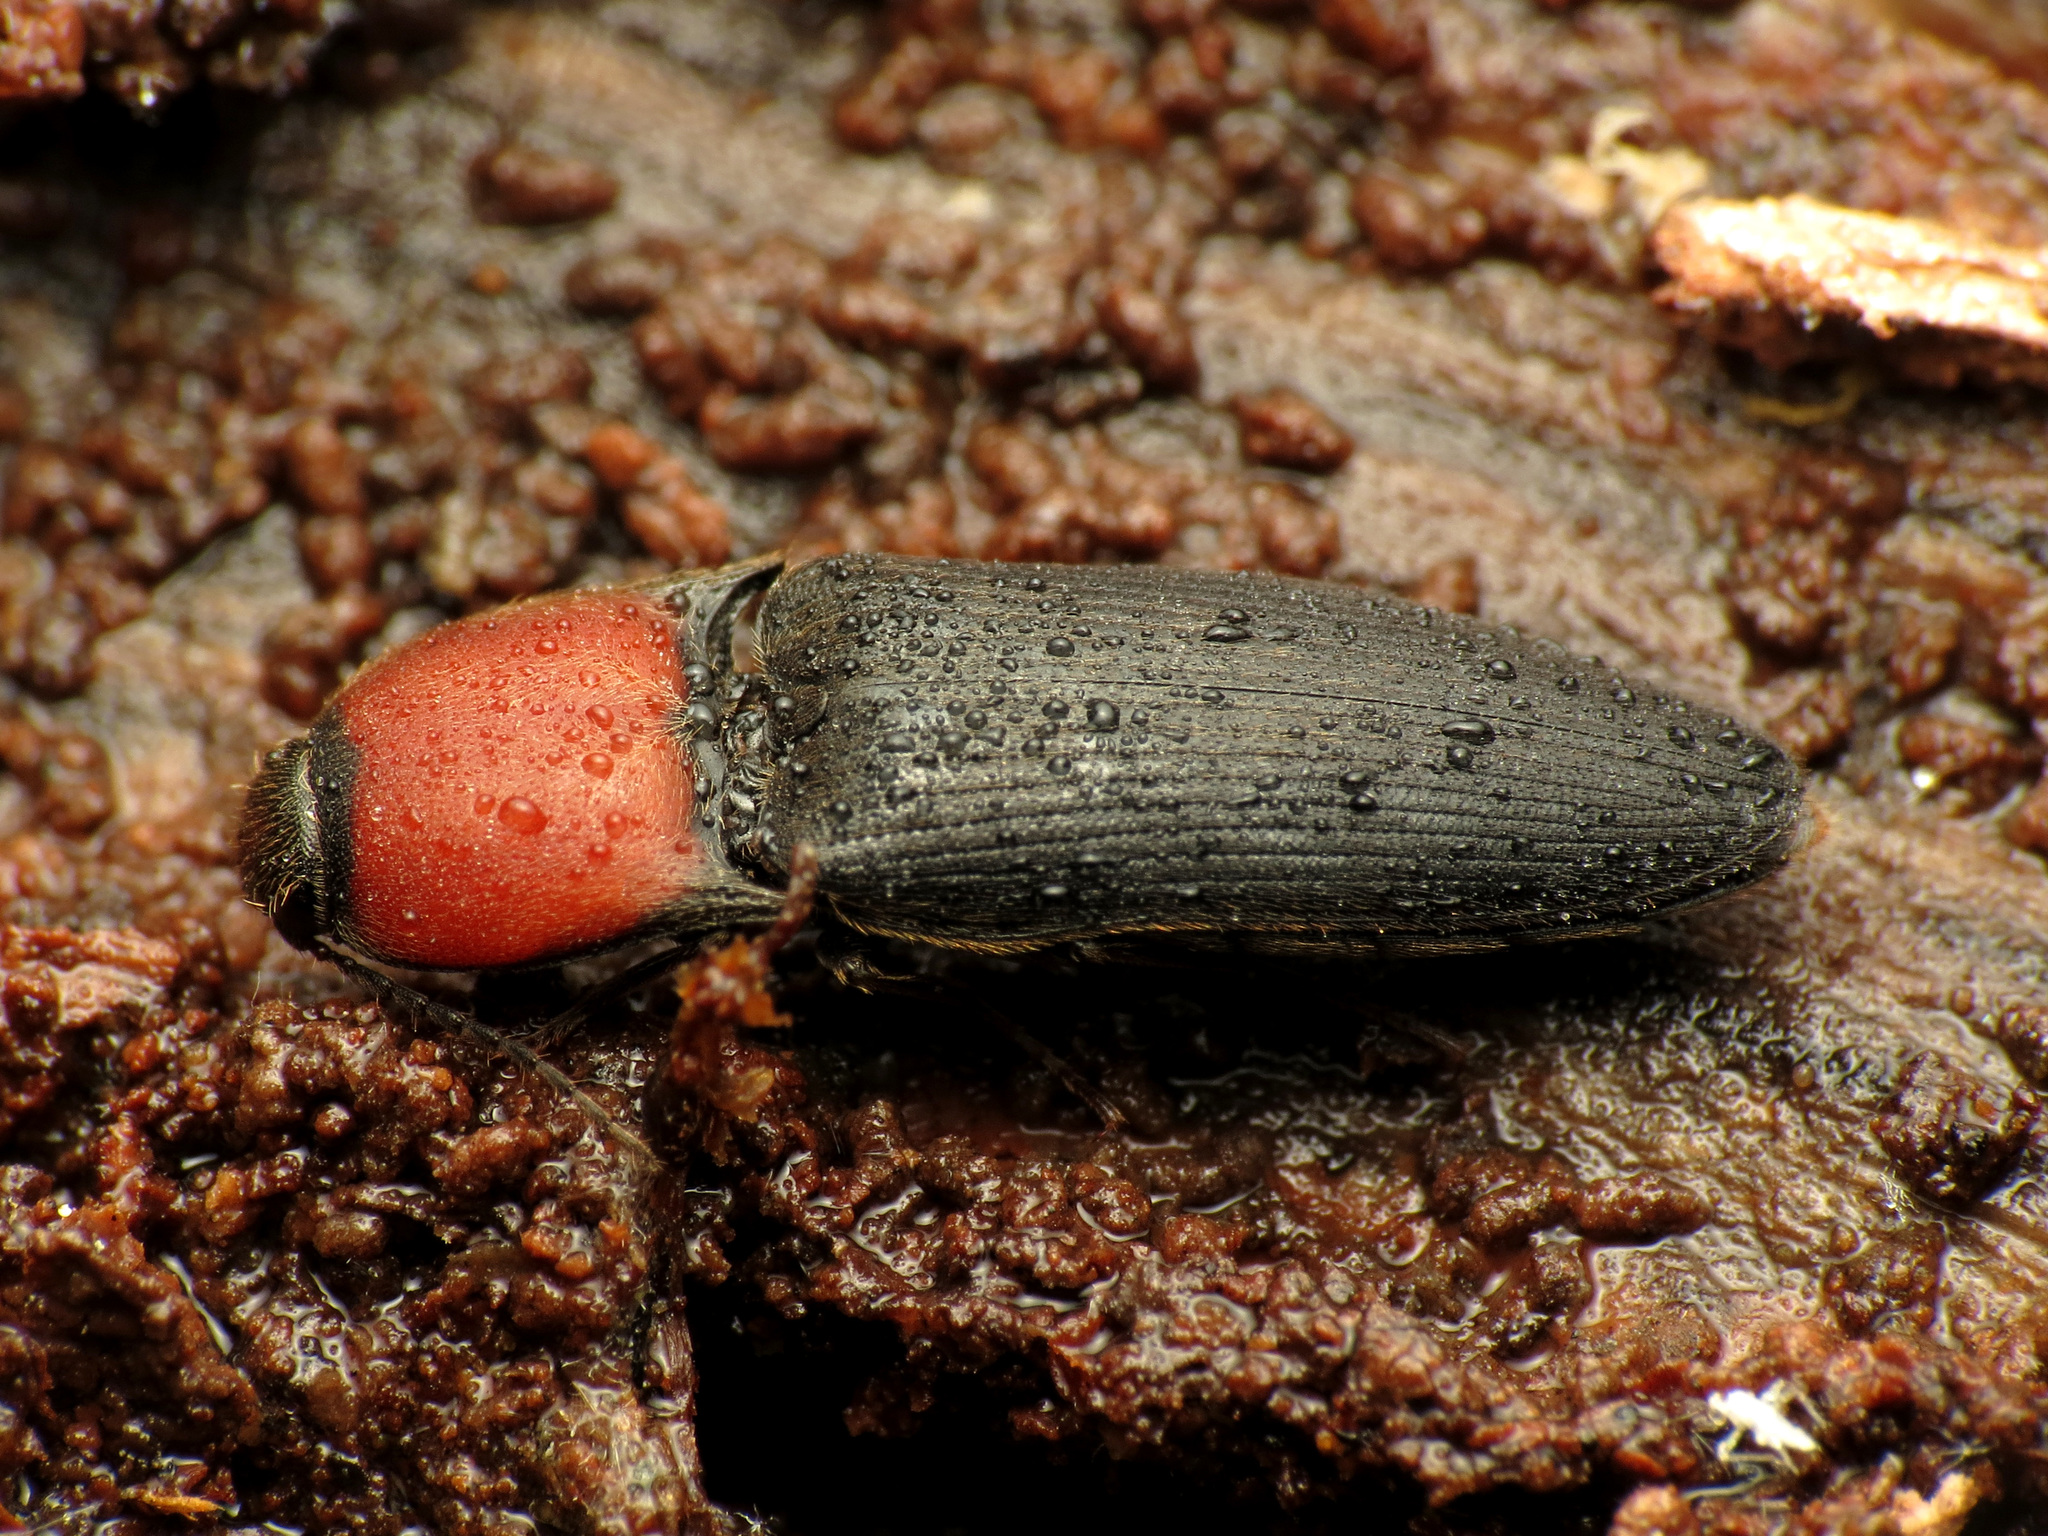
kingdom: Animalia
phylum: Arthropoda
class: Insecta
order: Coleoptera
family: Elateridae
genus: Ampedus
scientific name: Ampedus rubricollis
